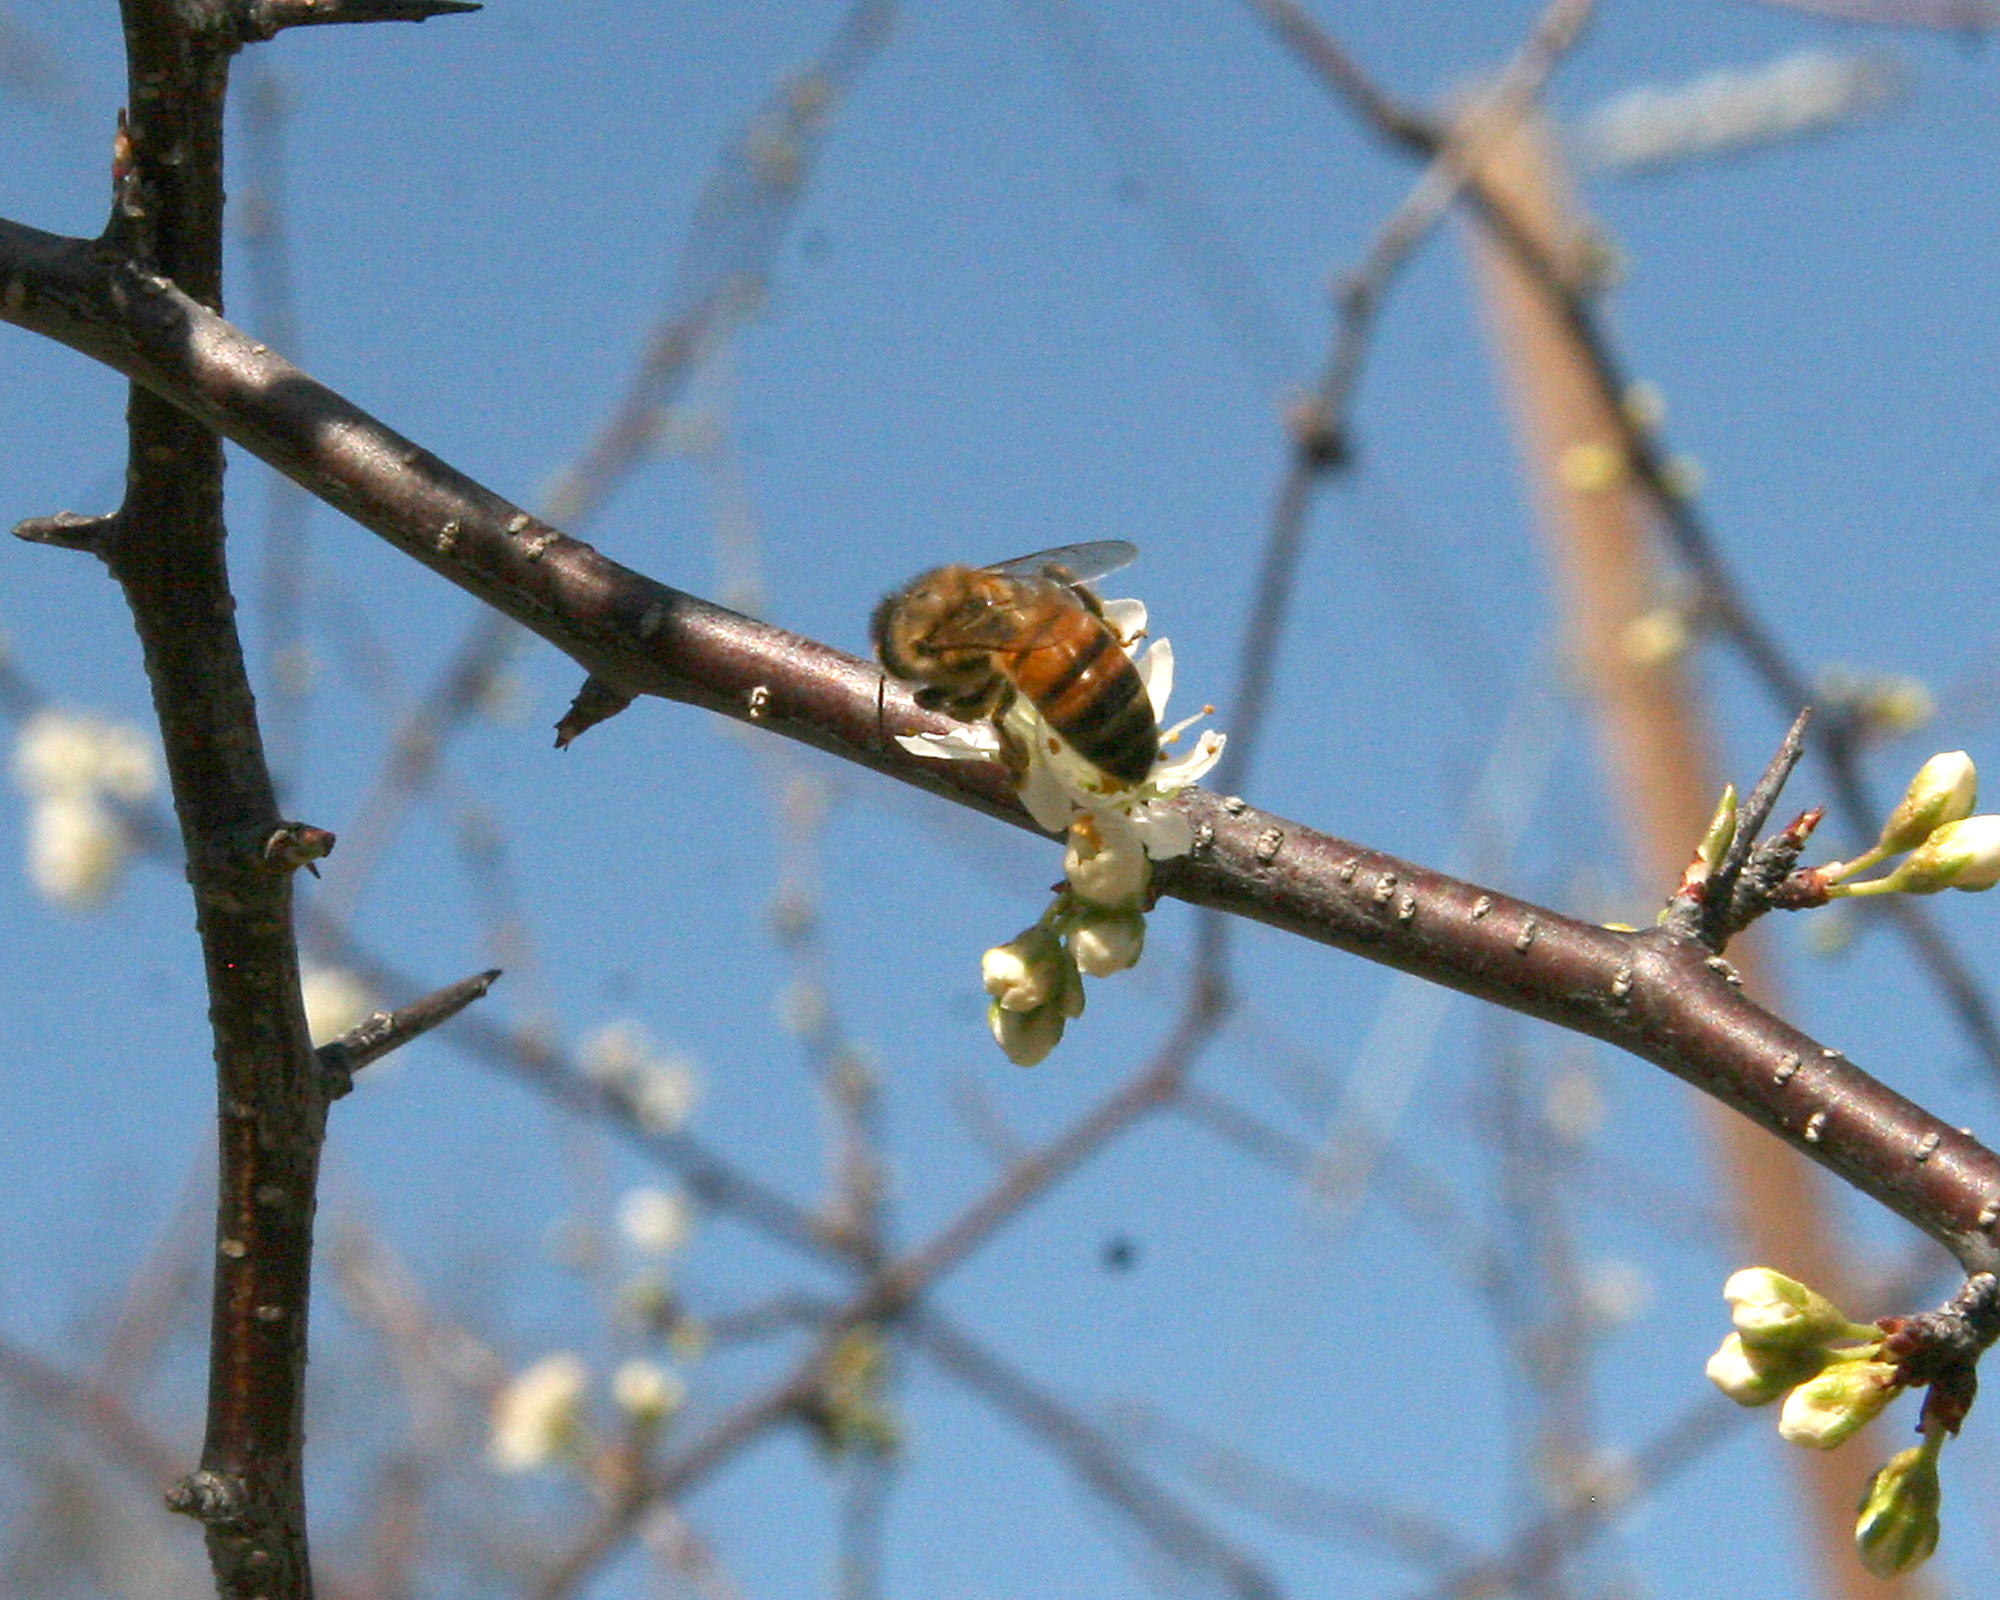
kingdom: Animalia
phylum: Arthropoda
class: Insecta
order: Hymenoptera
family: Apidae
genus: Apis
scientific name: Apis mellifera
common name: Honey bee
